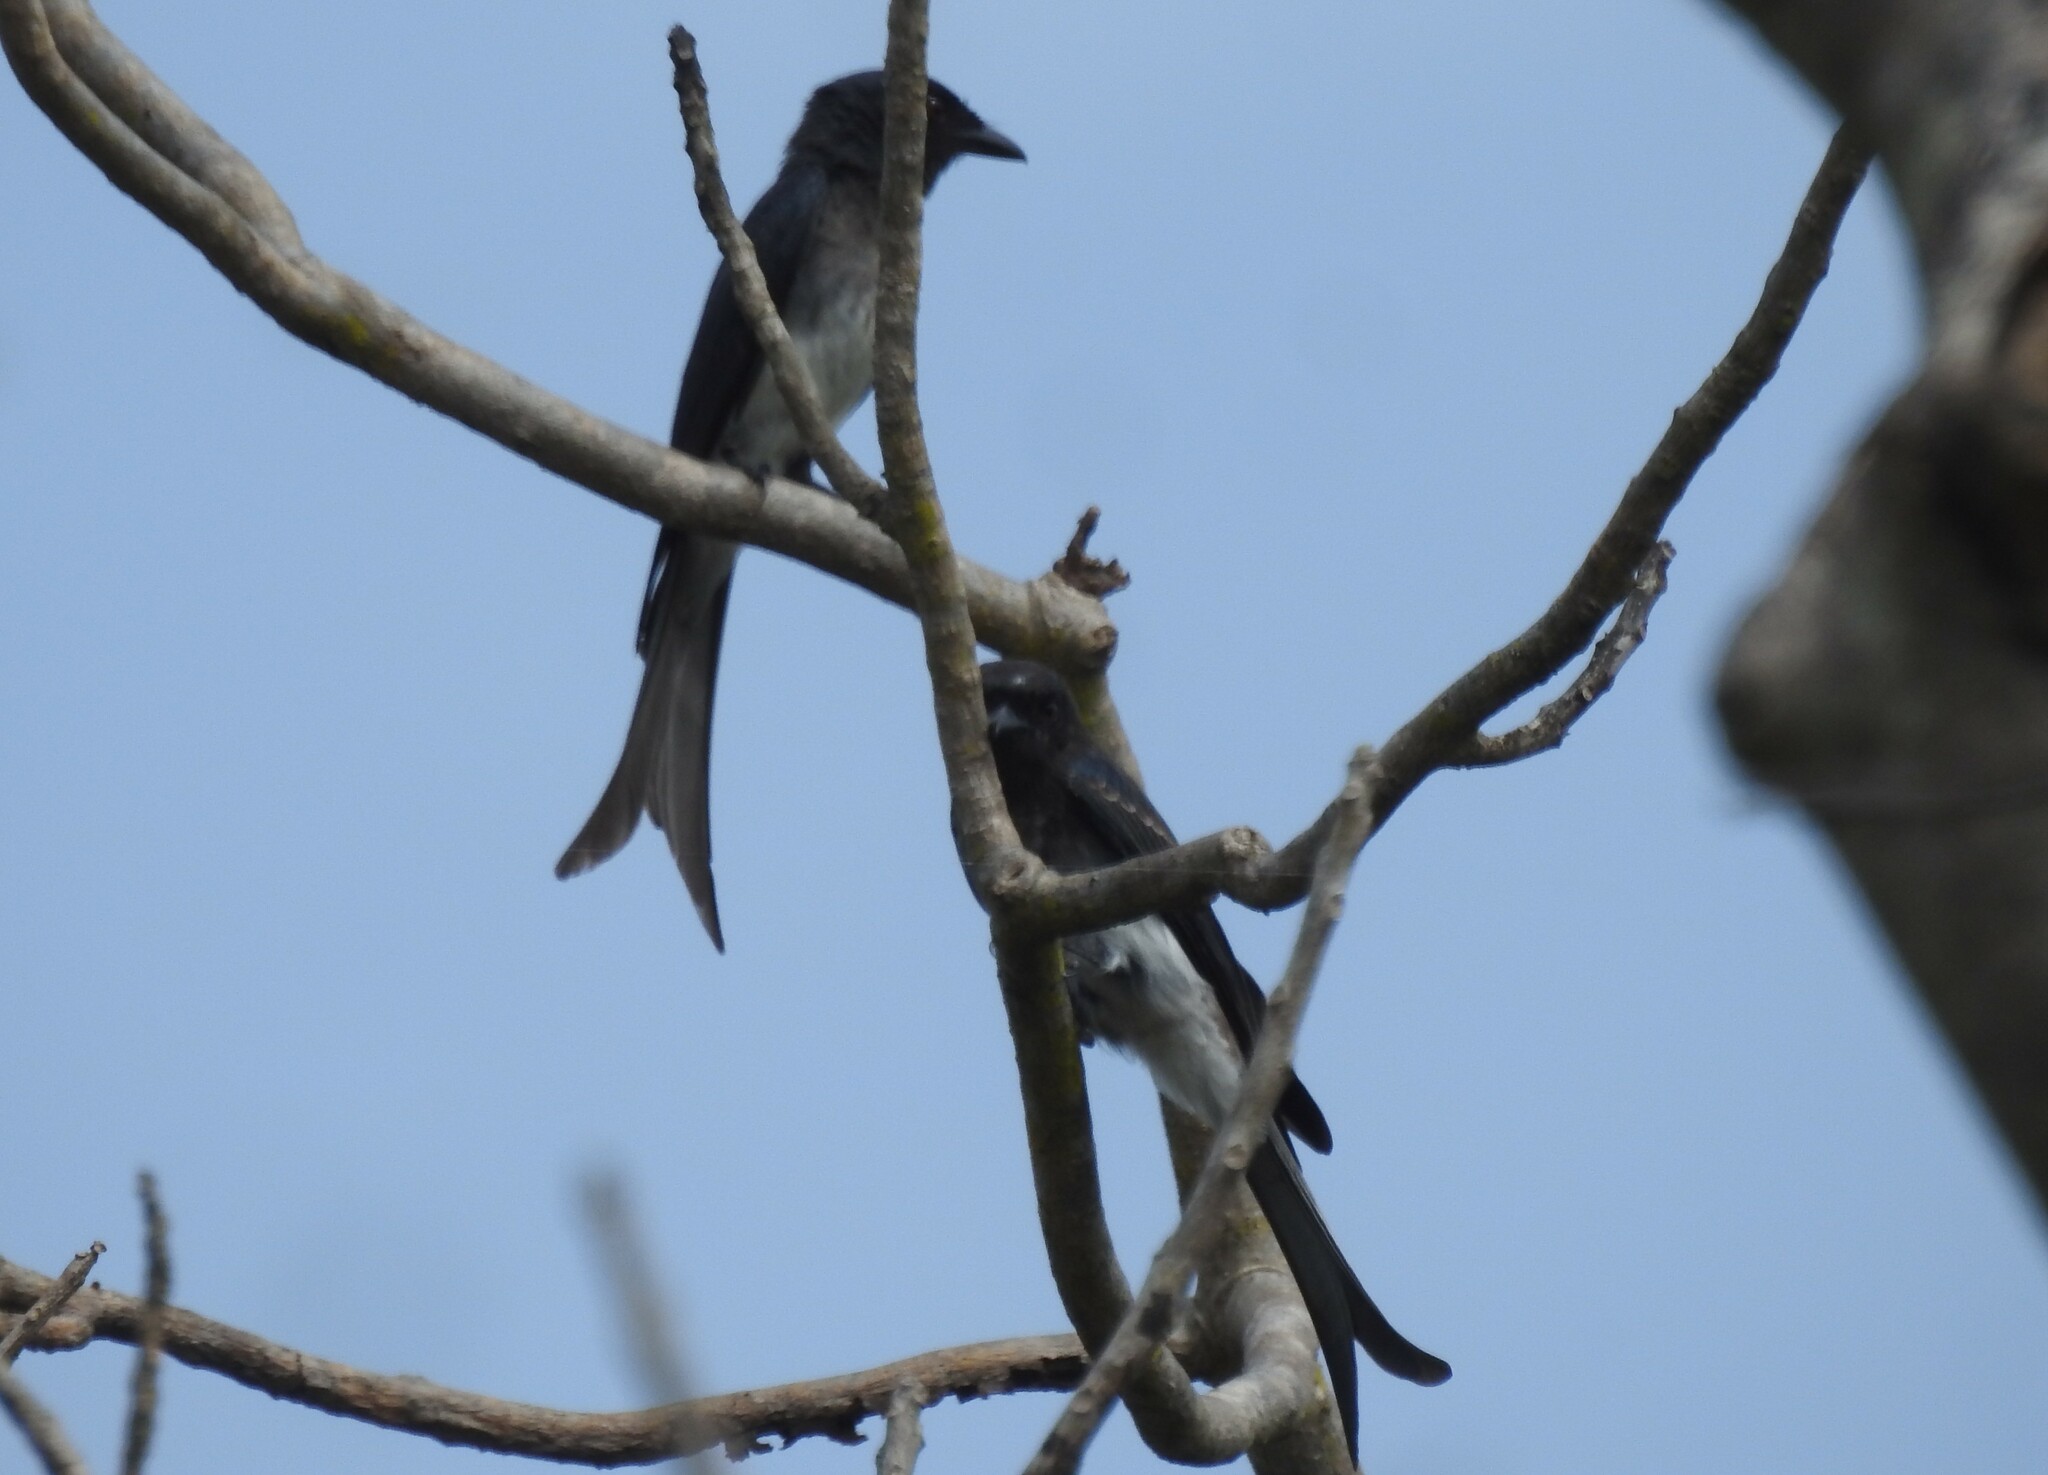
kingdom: Animalia
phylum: Chordata
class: Aves
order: Passeriformes
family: Dicruridae
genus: Dicrurus
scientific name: Dicrurus caerulescens
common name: White-bellied drongo
